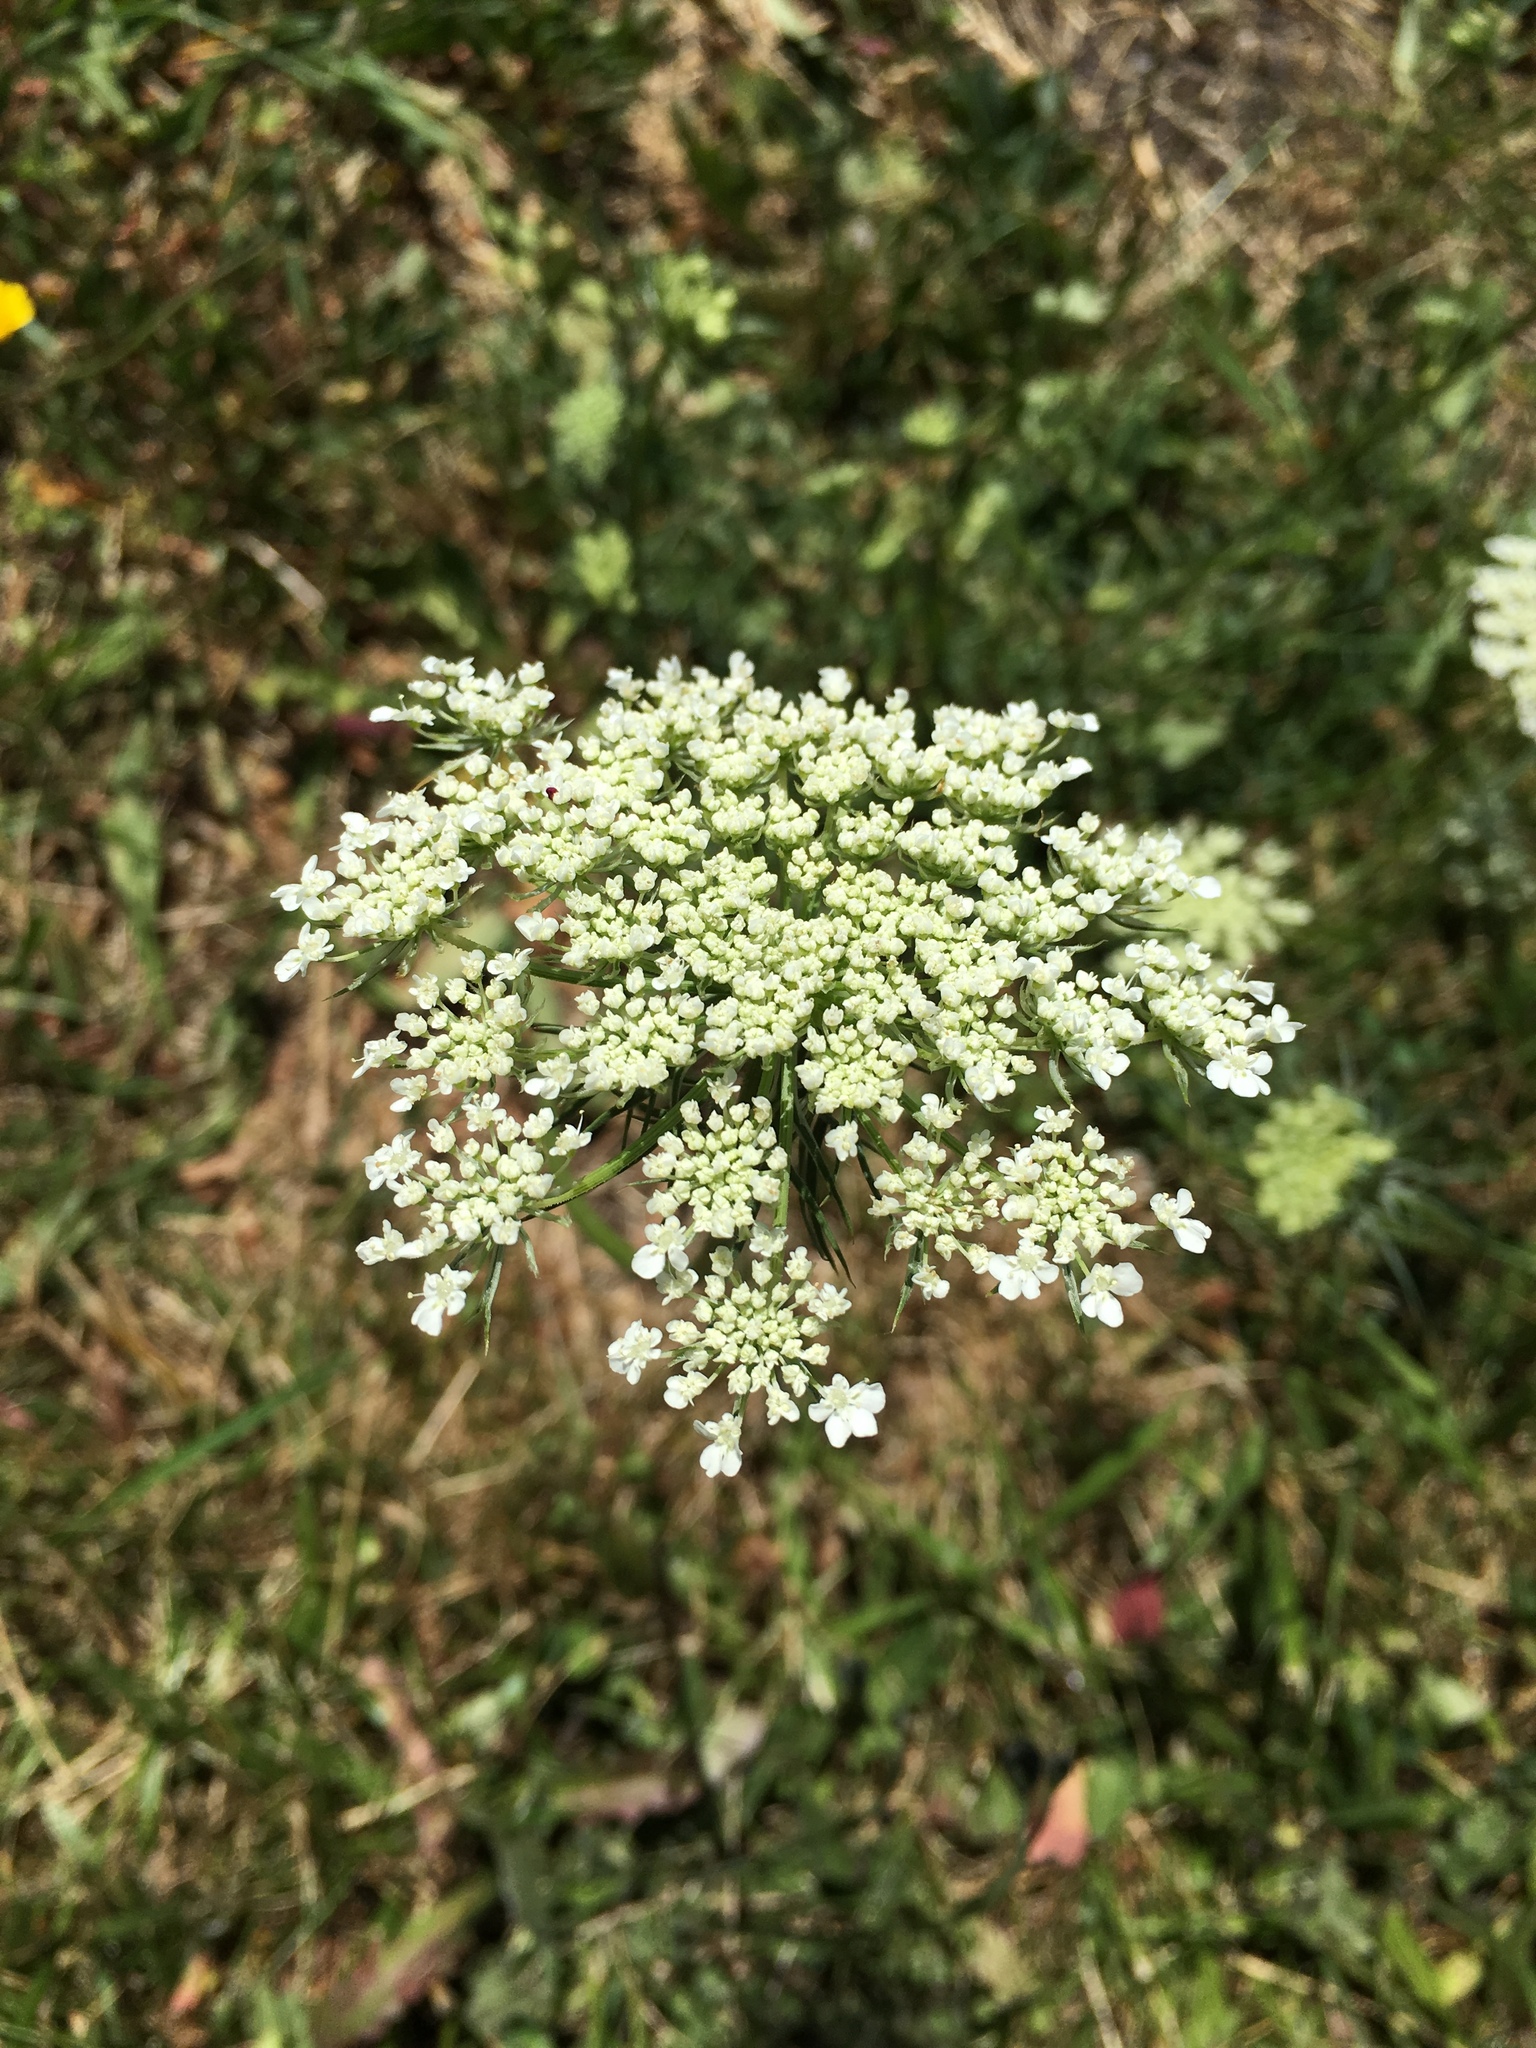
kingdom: Plantae
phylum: Tracheophyta
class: Magnoliopsida
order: Apiales
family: Apiaceae
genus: Daucus
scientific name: Daucus carota
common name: Wild carrot
